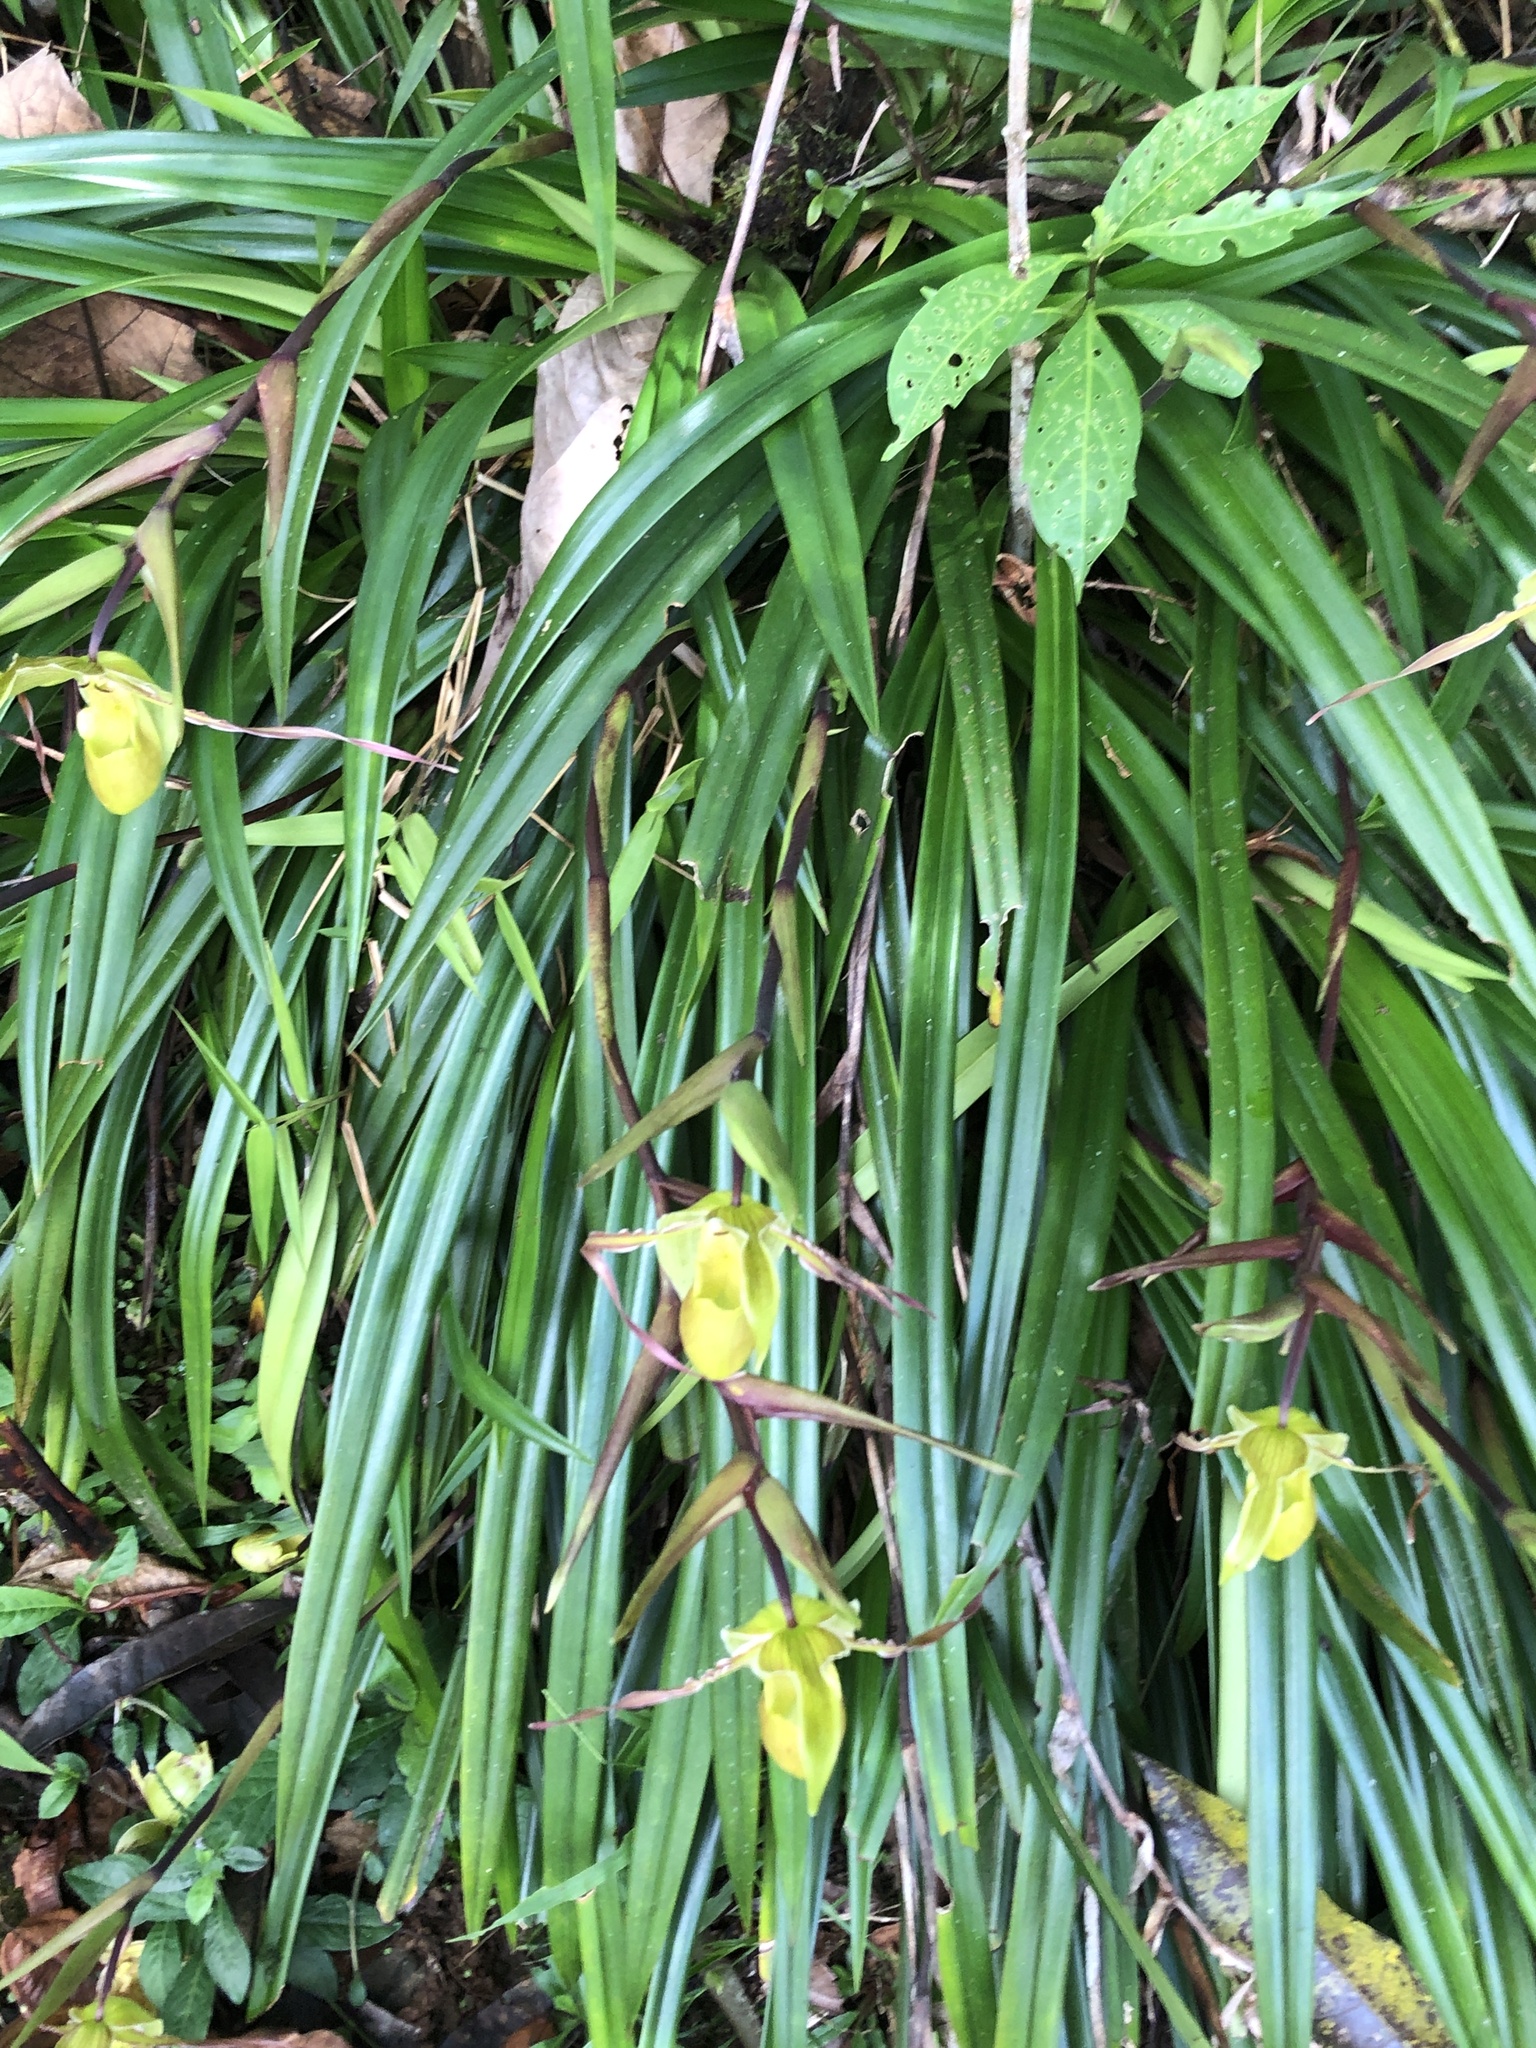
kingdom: Plantae
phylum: Tracheophyta
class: Liliopsida
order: Asparagales
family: Orchidaceae
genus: Phragmipedium
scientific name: Phragmipedium longifolium
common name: Long-leaf phragmipedium
